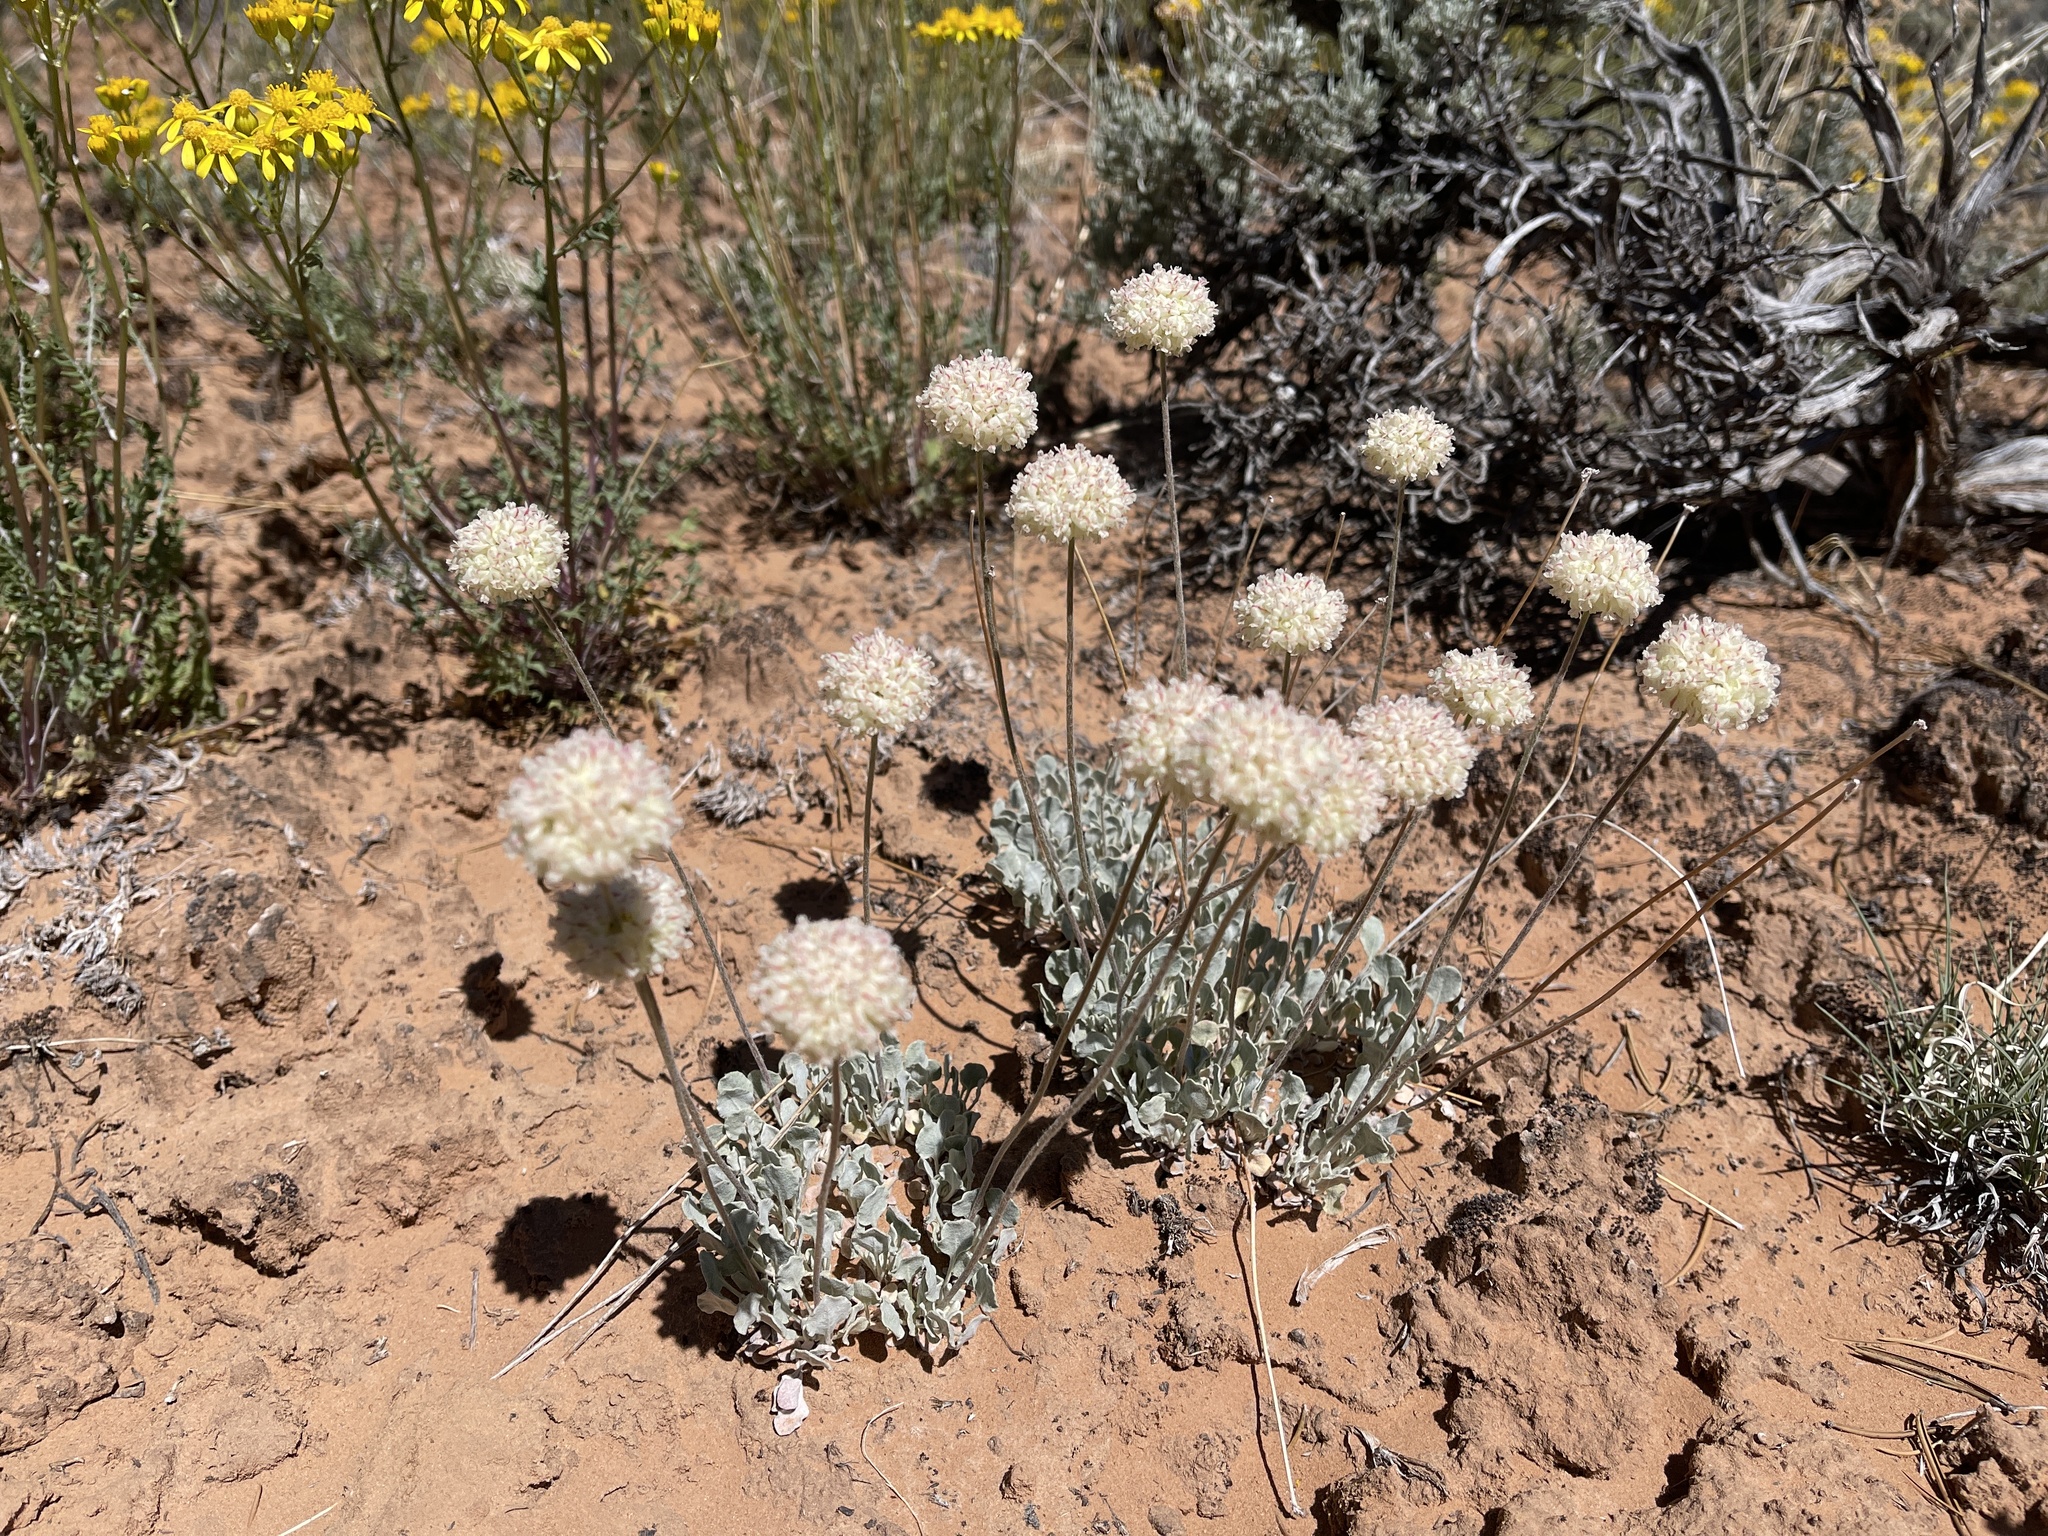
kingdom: Plantae
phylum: Tracheophyta
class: Magnoliopsida
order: Caryophyllales
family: Polygonaceae
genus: Eriogonum
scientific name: Eriogonum ovalifolium
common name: Cushion buckwheat
